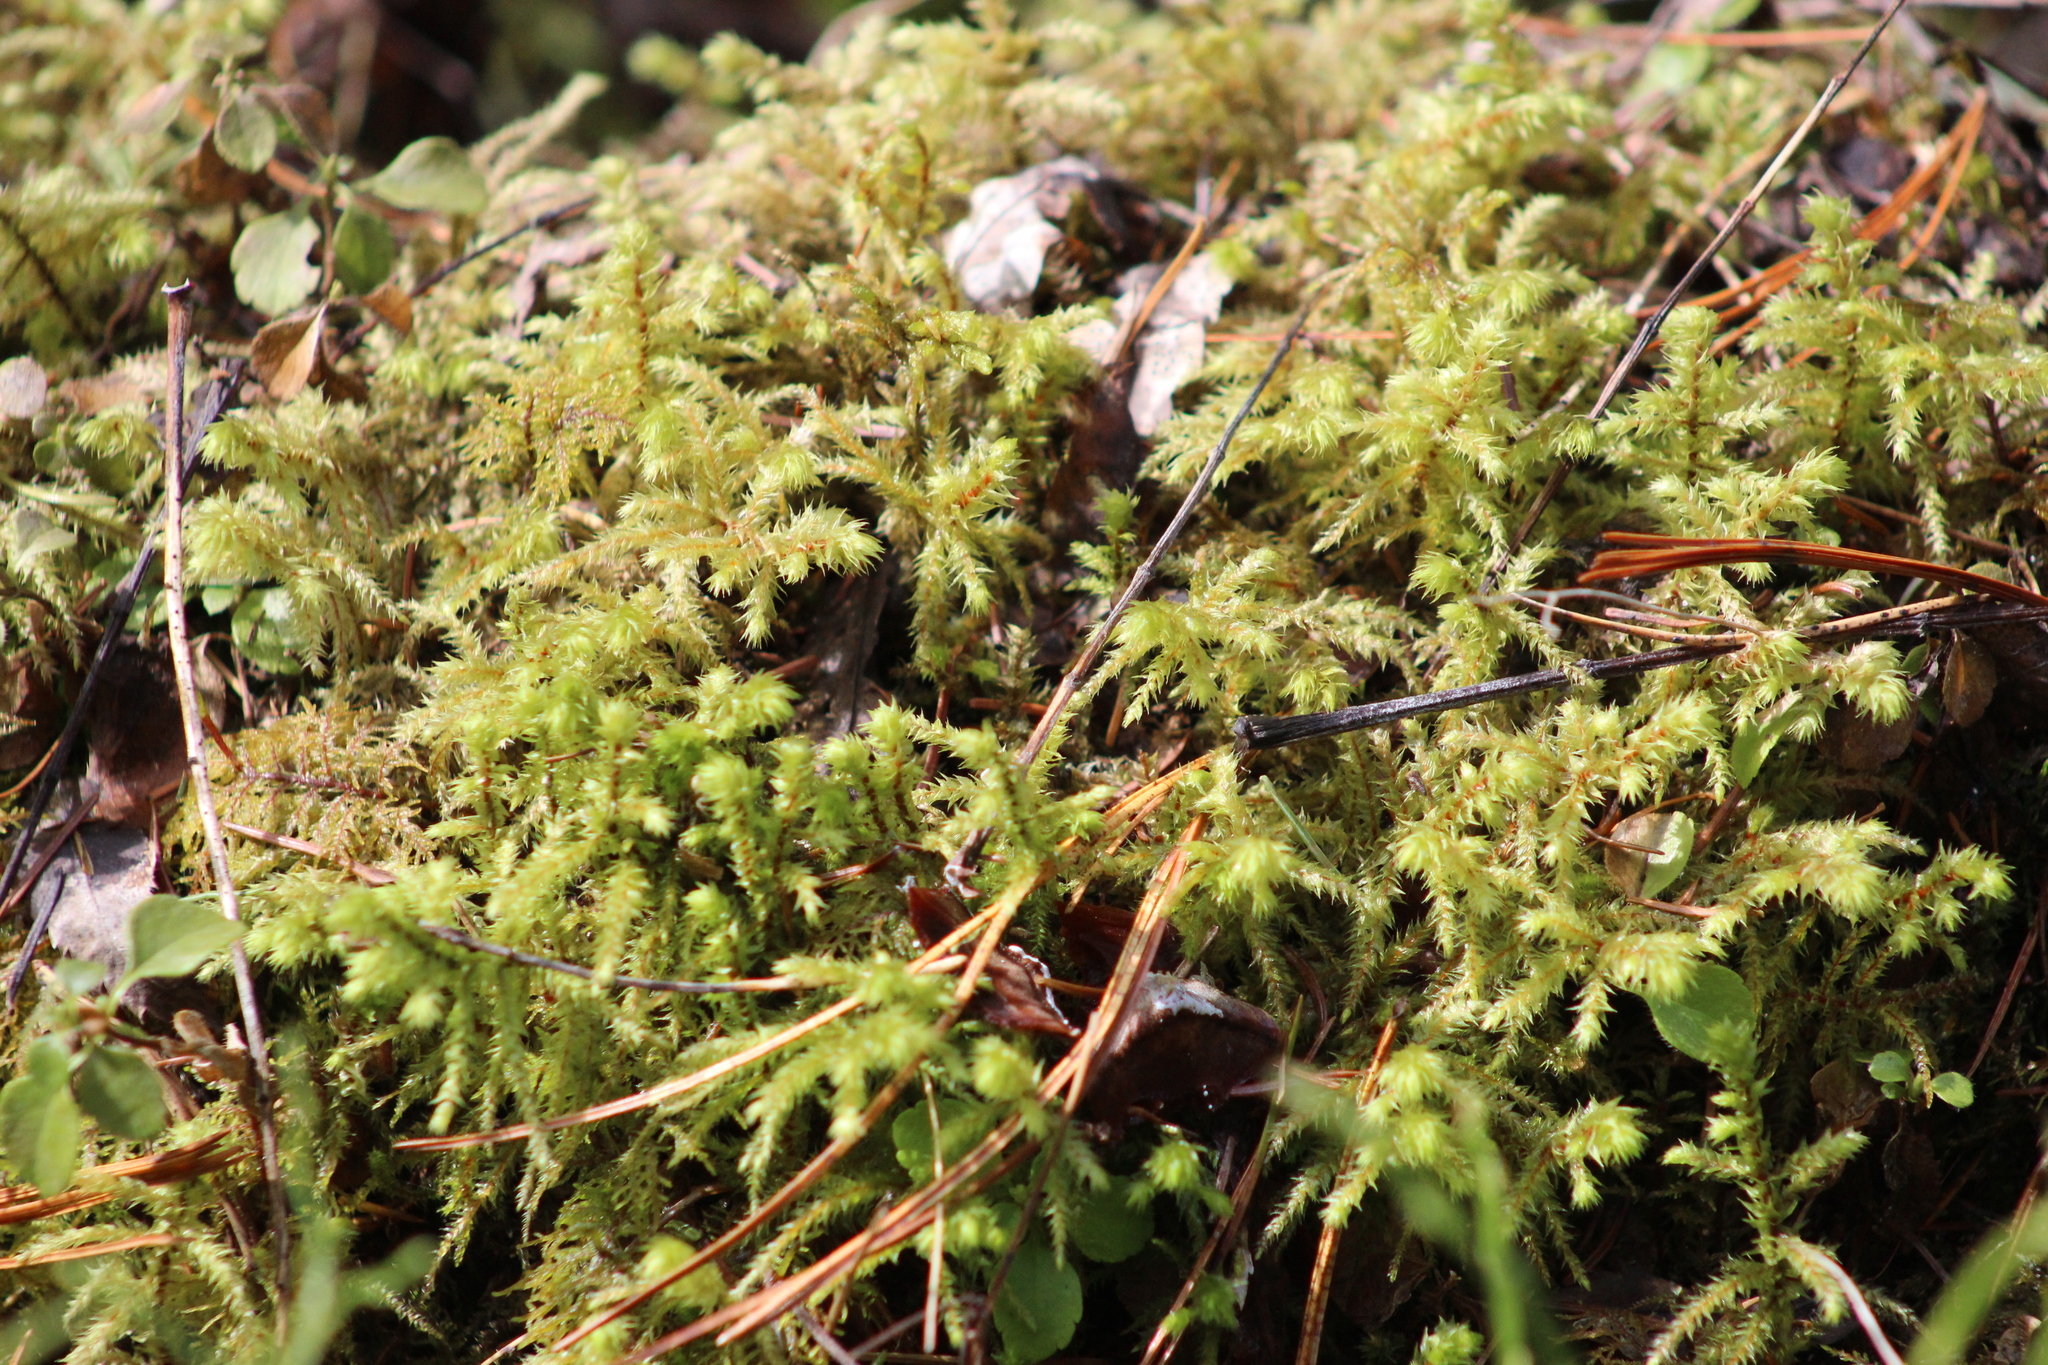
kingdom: Plantae
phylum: Bryophyta
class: Bryopsida
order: Hypnales
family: Hylocomiaceae
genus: Hylocomiadelphus
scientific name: Hylocomiadelphus triquetrus
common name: Rough goose neck moss
